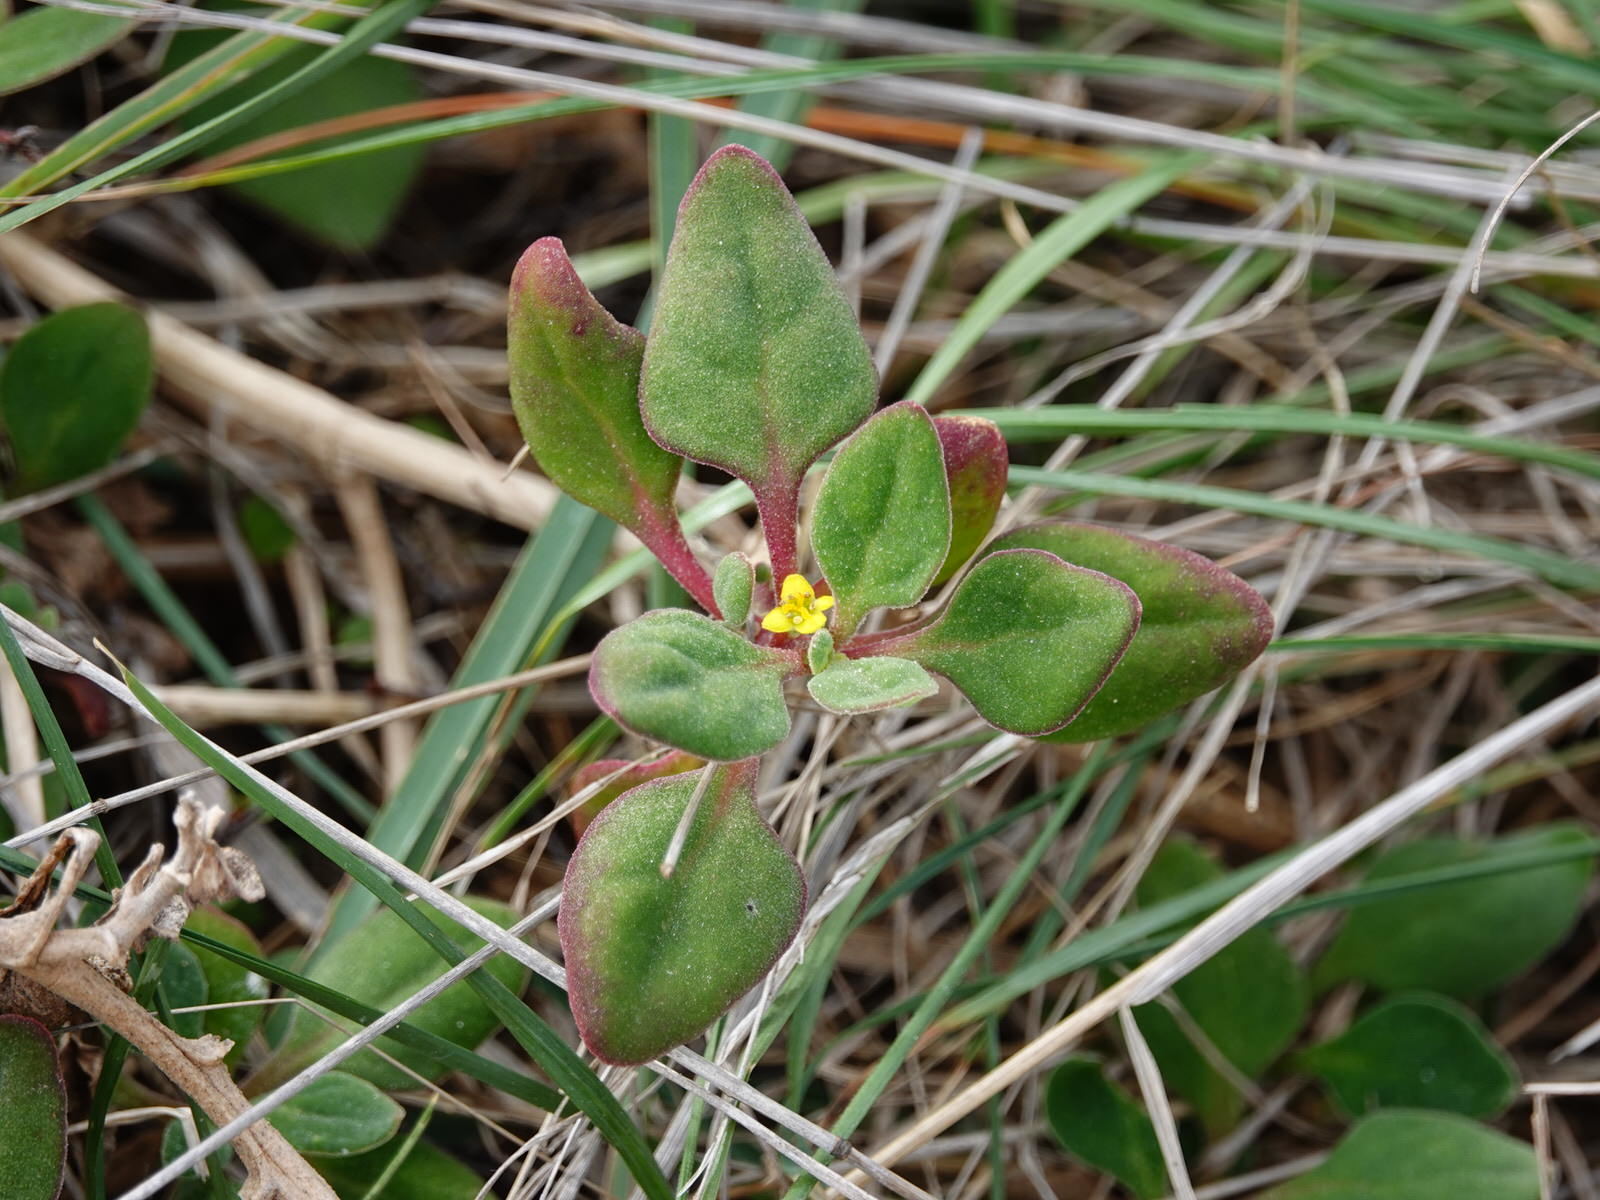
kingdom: Plantae
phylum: Tracheophyta
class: Magnoliopsida
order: Caryophyllales
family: Aizoaceae
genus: Tetragonia
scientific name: Tetragonia implexicoma
